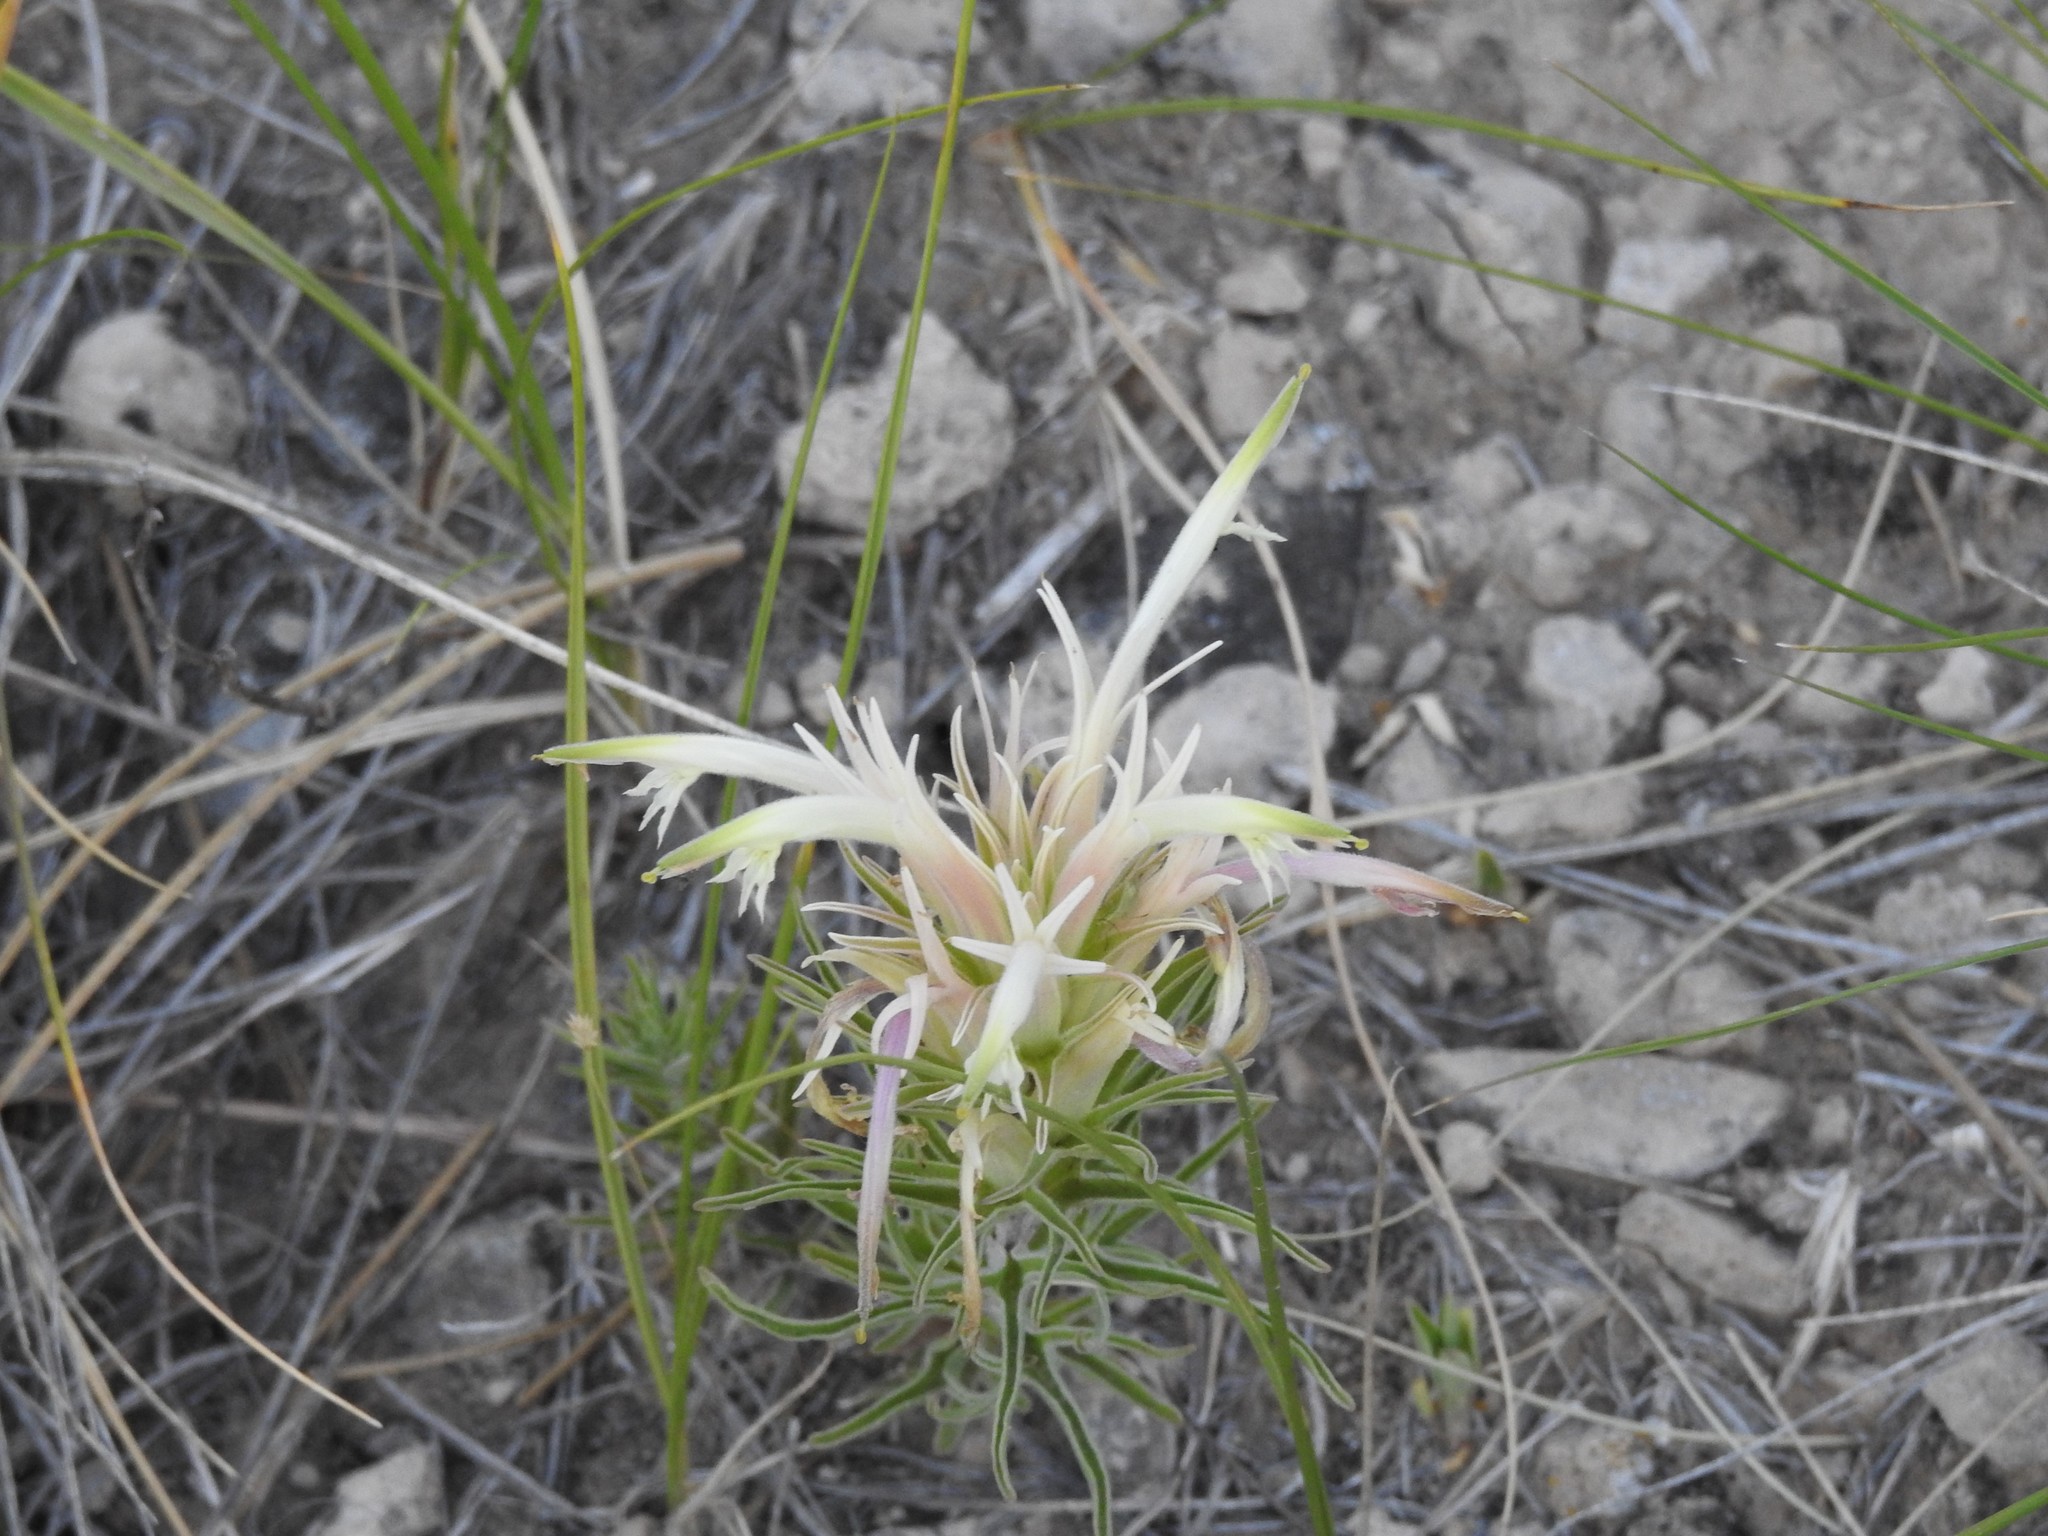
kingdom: Plantae
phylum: Tracheophyta
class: Magnoliopsida
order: Lamiales
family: Orobanchaceae
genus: Castilleja
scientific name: Castilleja sessiliflora
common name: Downy paintbrush
